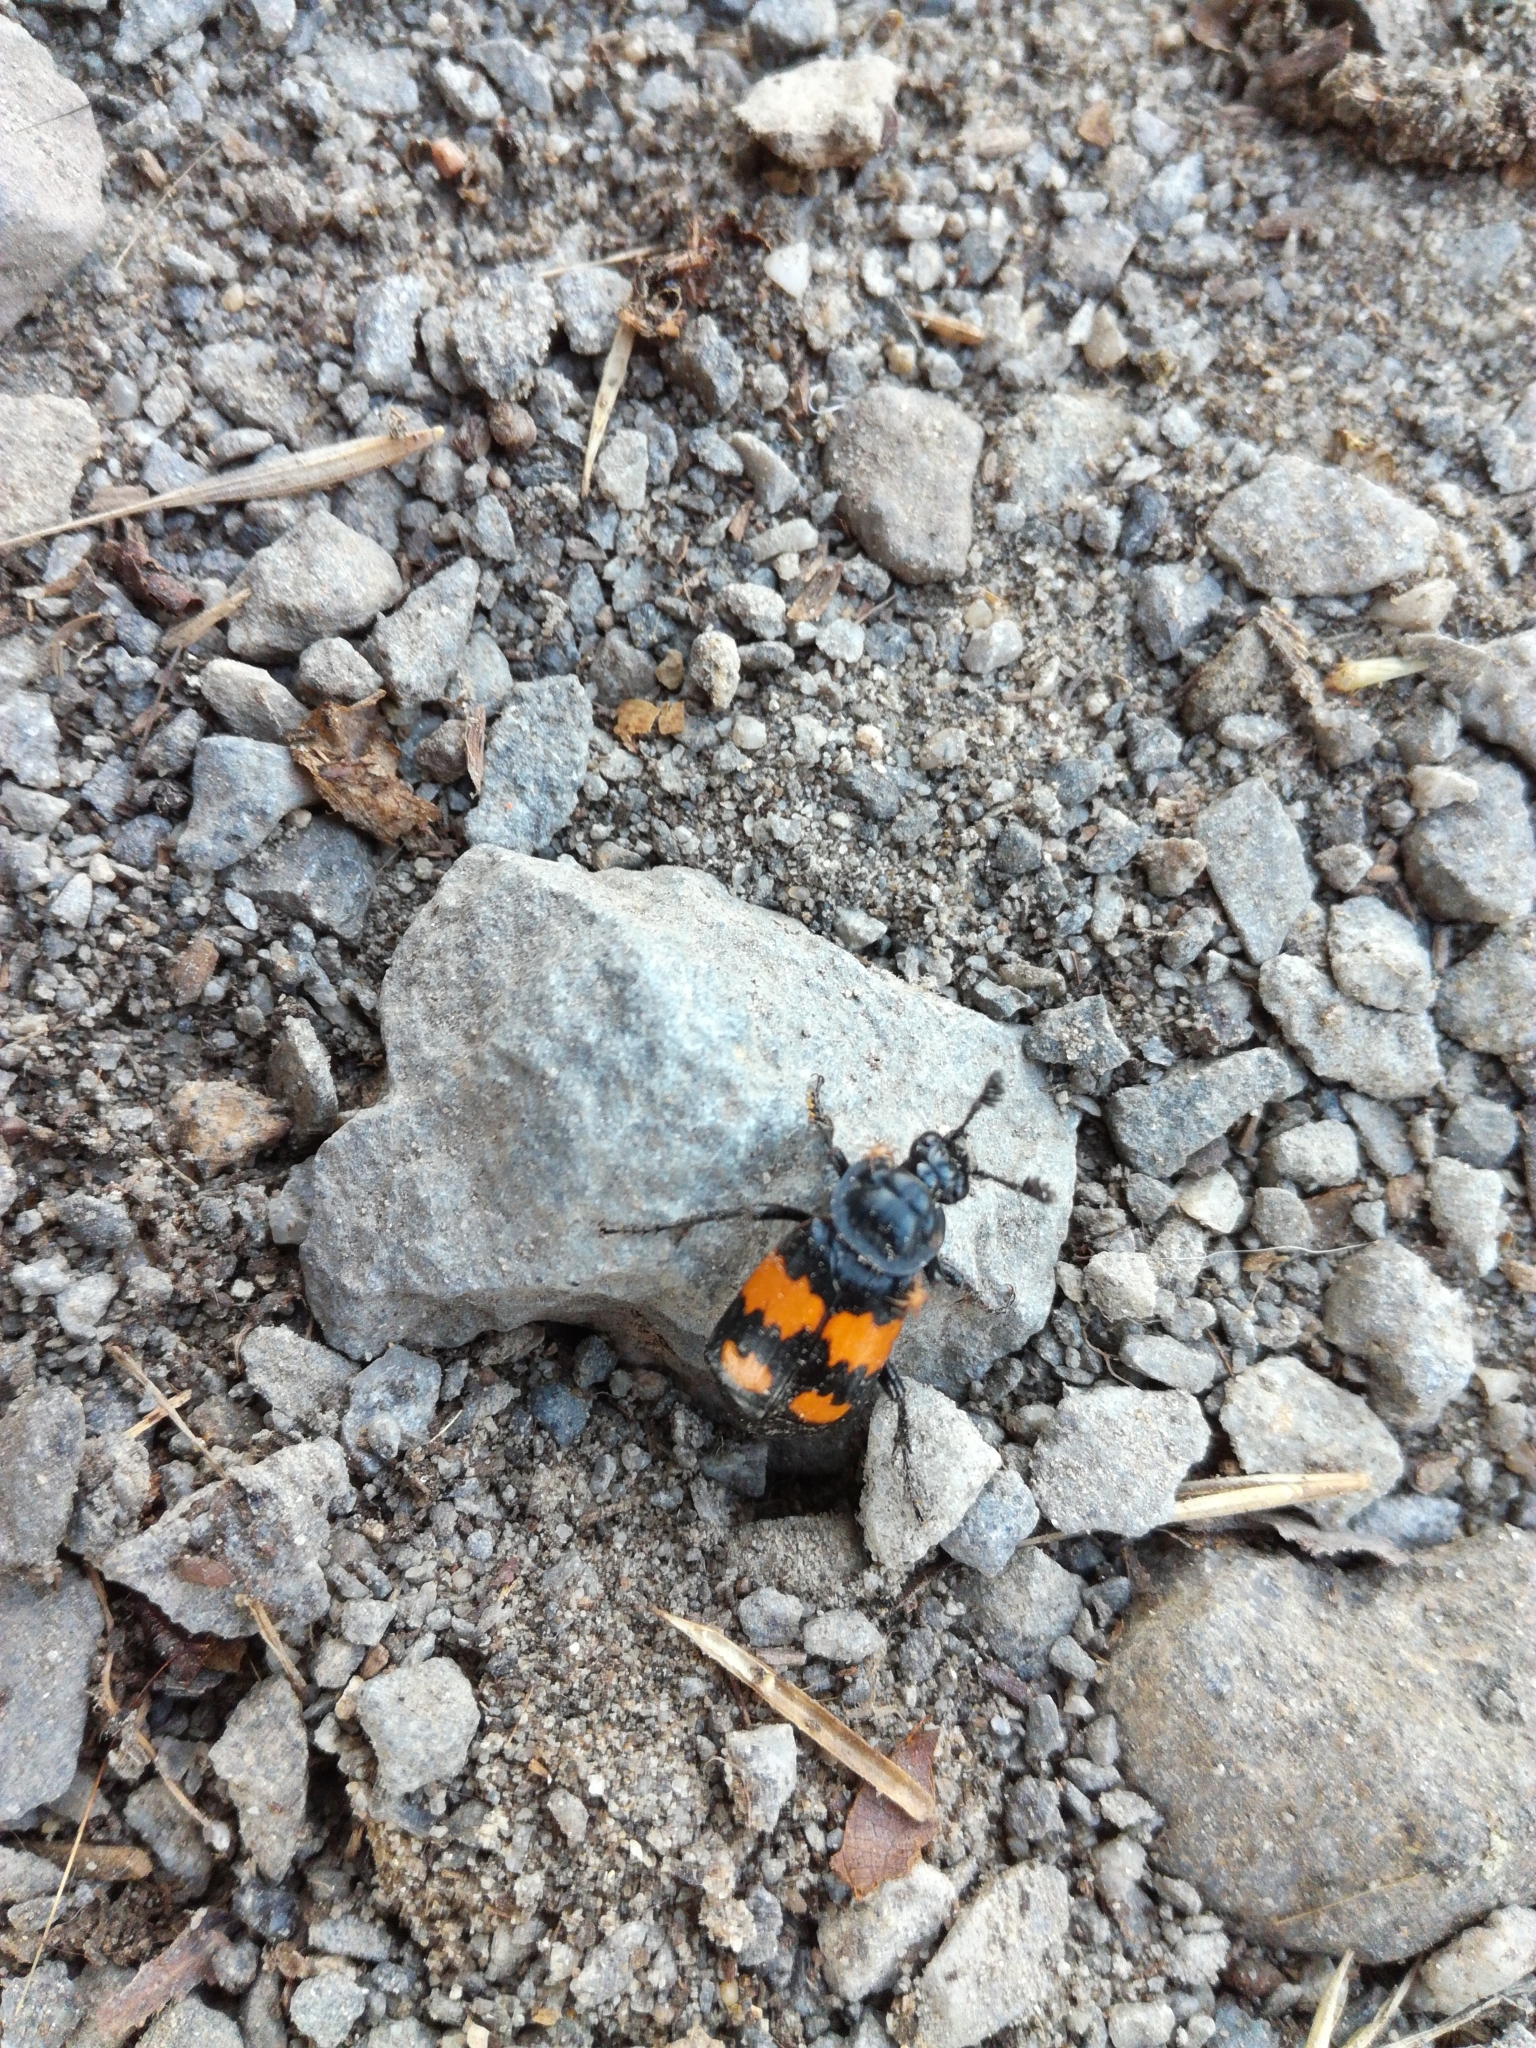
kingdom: Animalia
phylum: Arthropoda
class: Insecta
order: Coleoptera
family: Staphylinidae
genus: Nicrophorus
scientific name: Nicrophorus vespilloides
